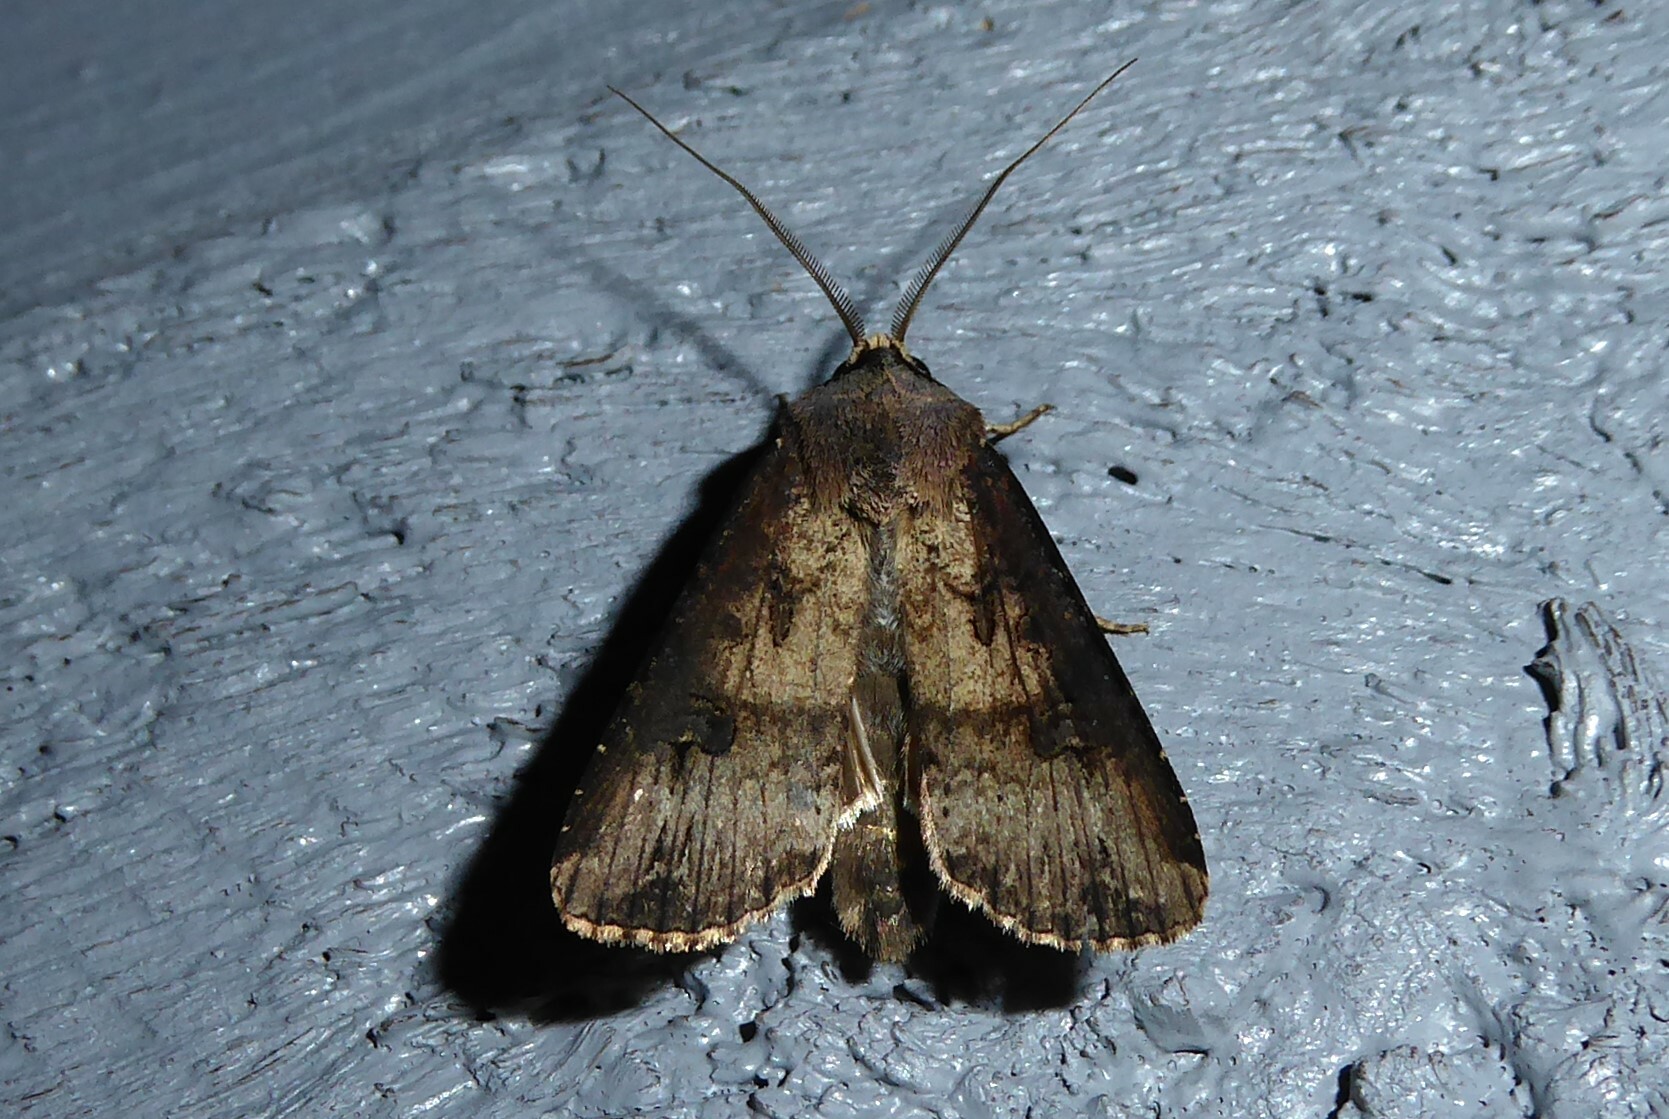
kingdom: Animalia
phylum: Arthropoda
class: Insecta
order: Lepidoptera
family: Noctuidae
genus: Agrotis
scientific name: Agrotis ipsilon
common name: Dark sword-grass
